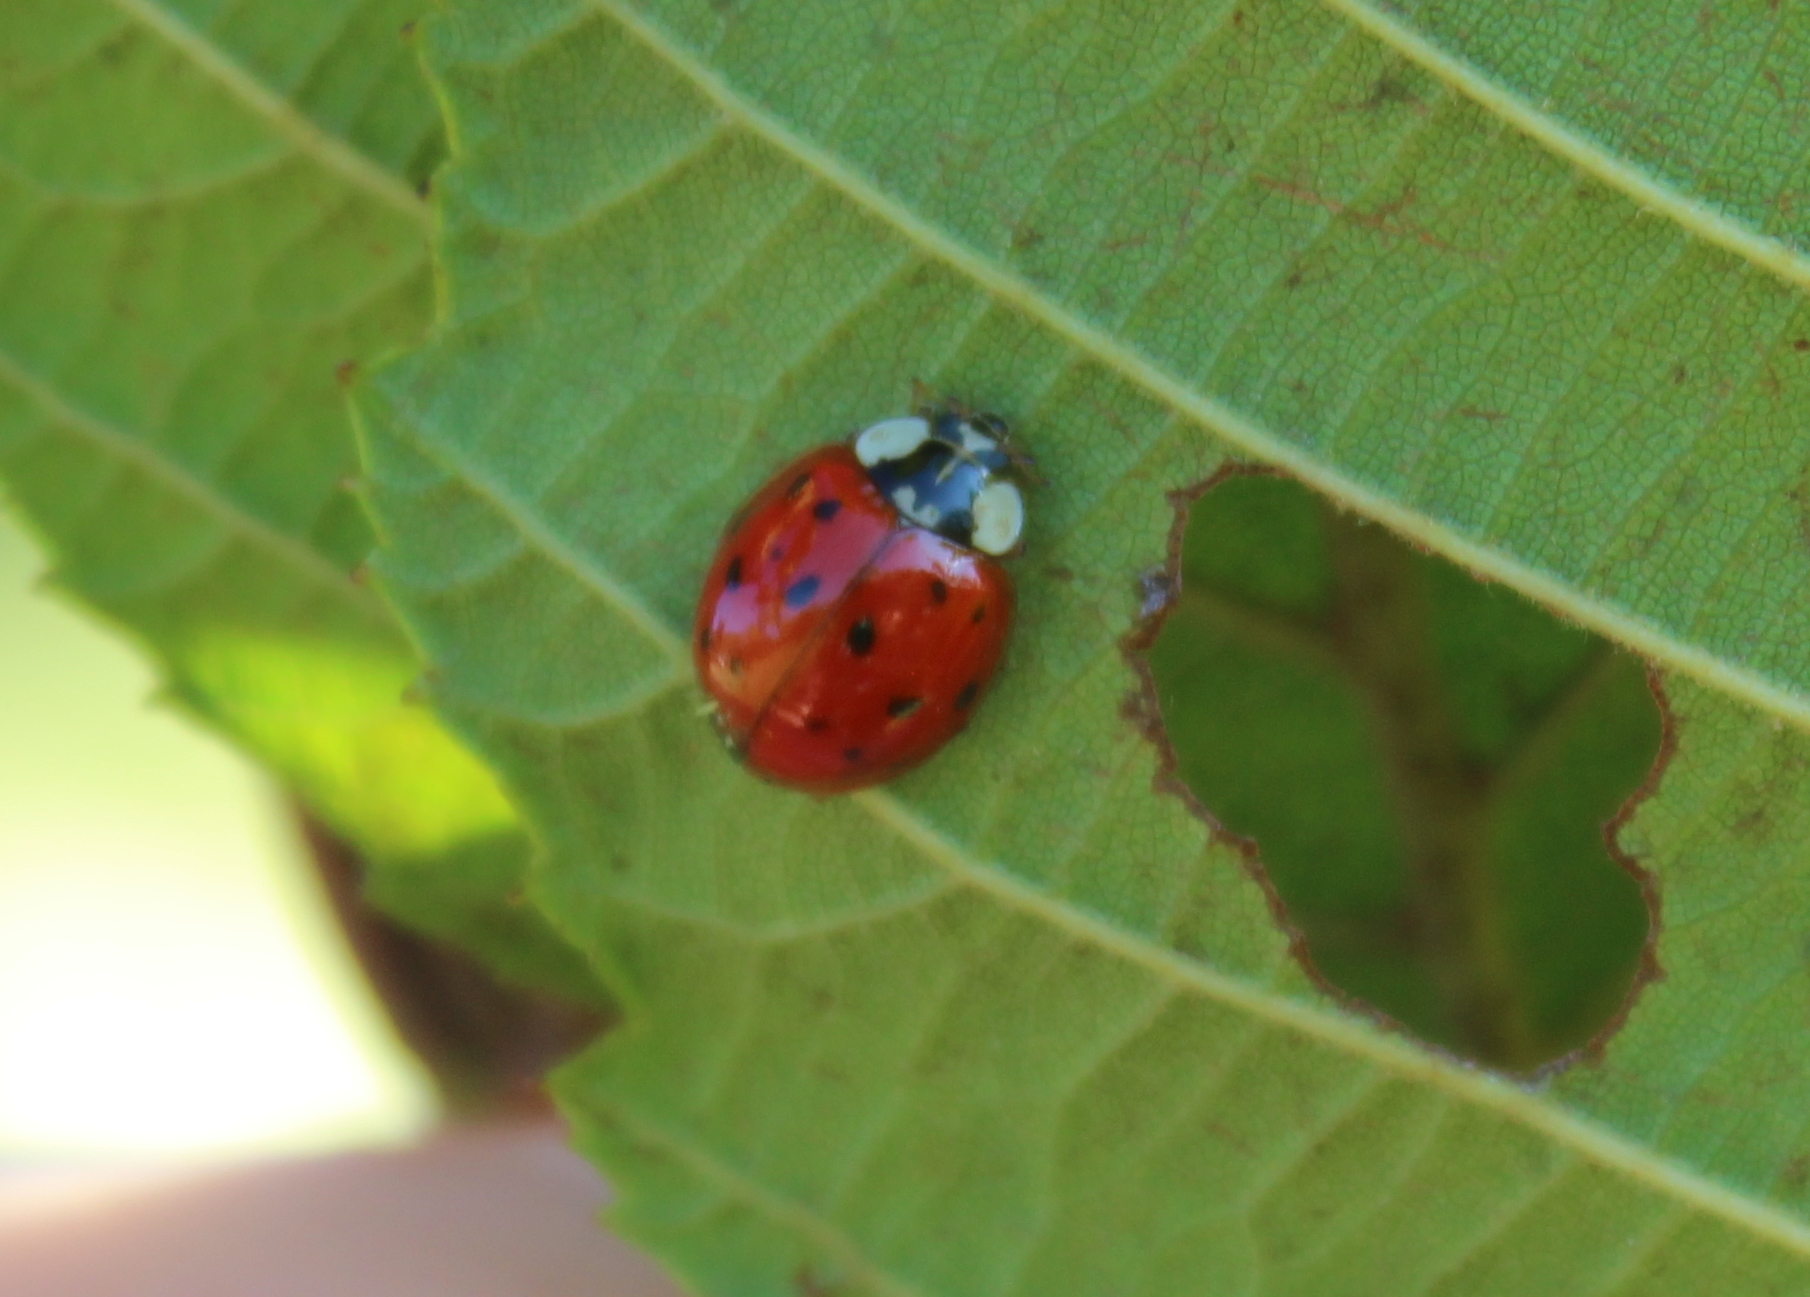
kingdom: Animalia
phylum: Arthropoda
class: Insecta
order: Coleoptera
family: Coccinellidae
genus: Harmonia
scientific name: Harmonia axyridis
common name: Harlequin ladybird
